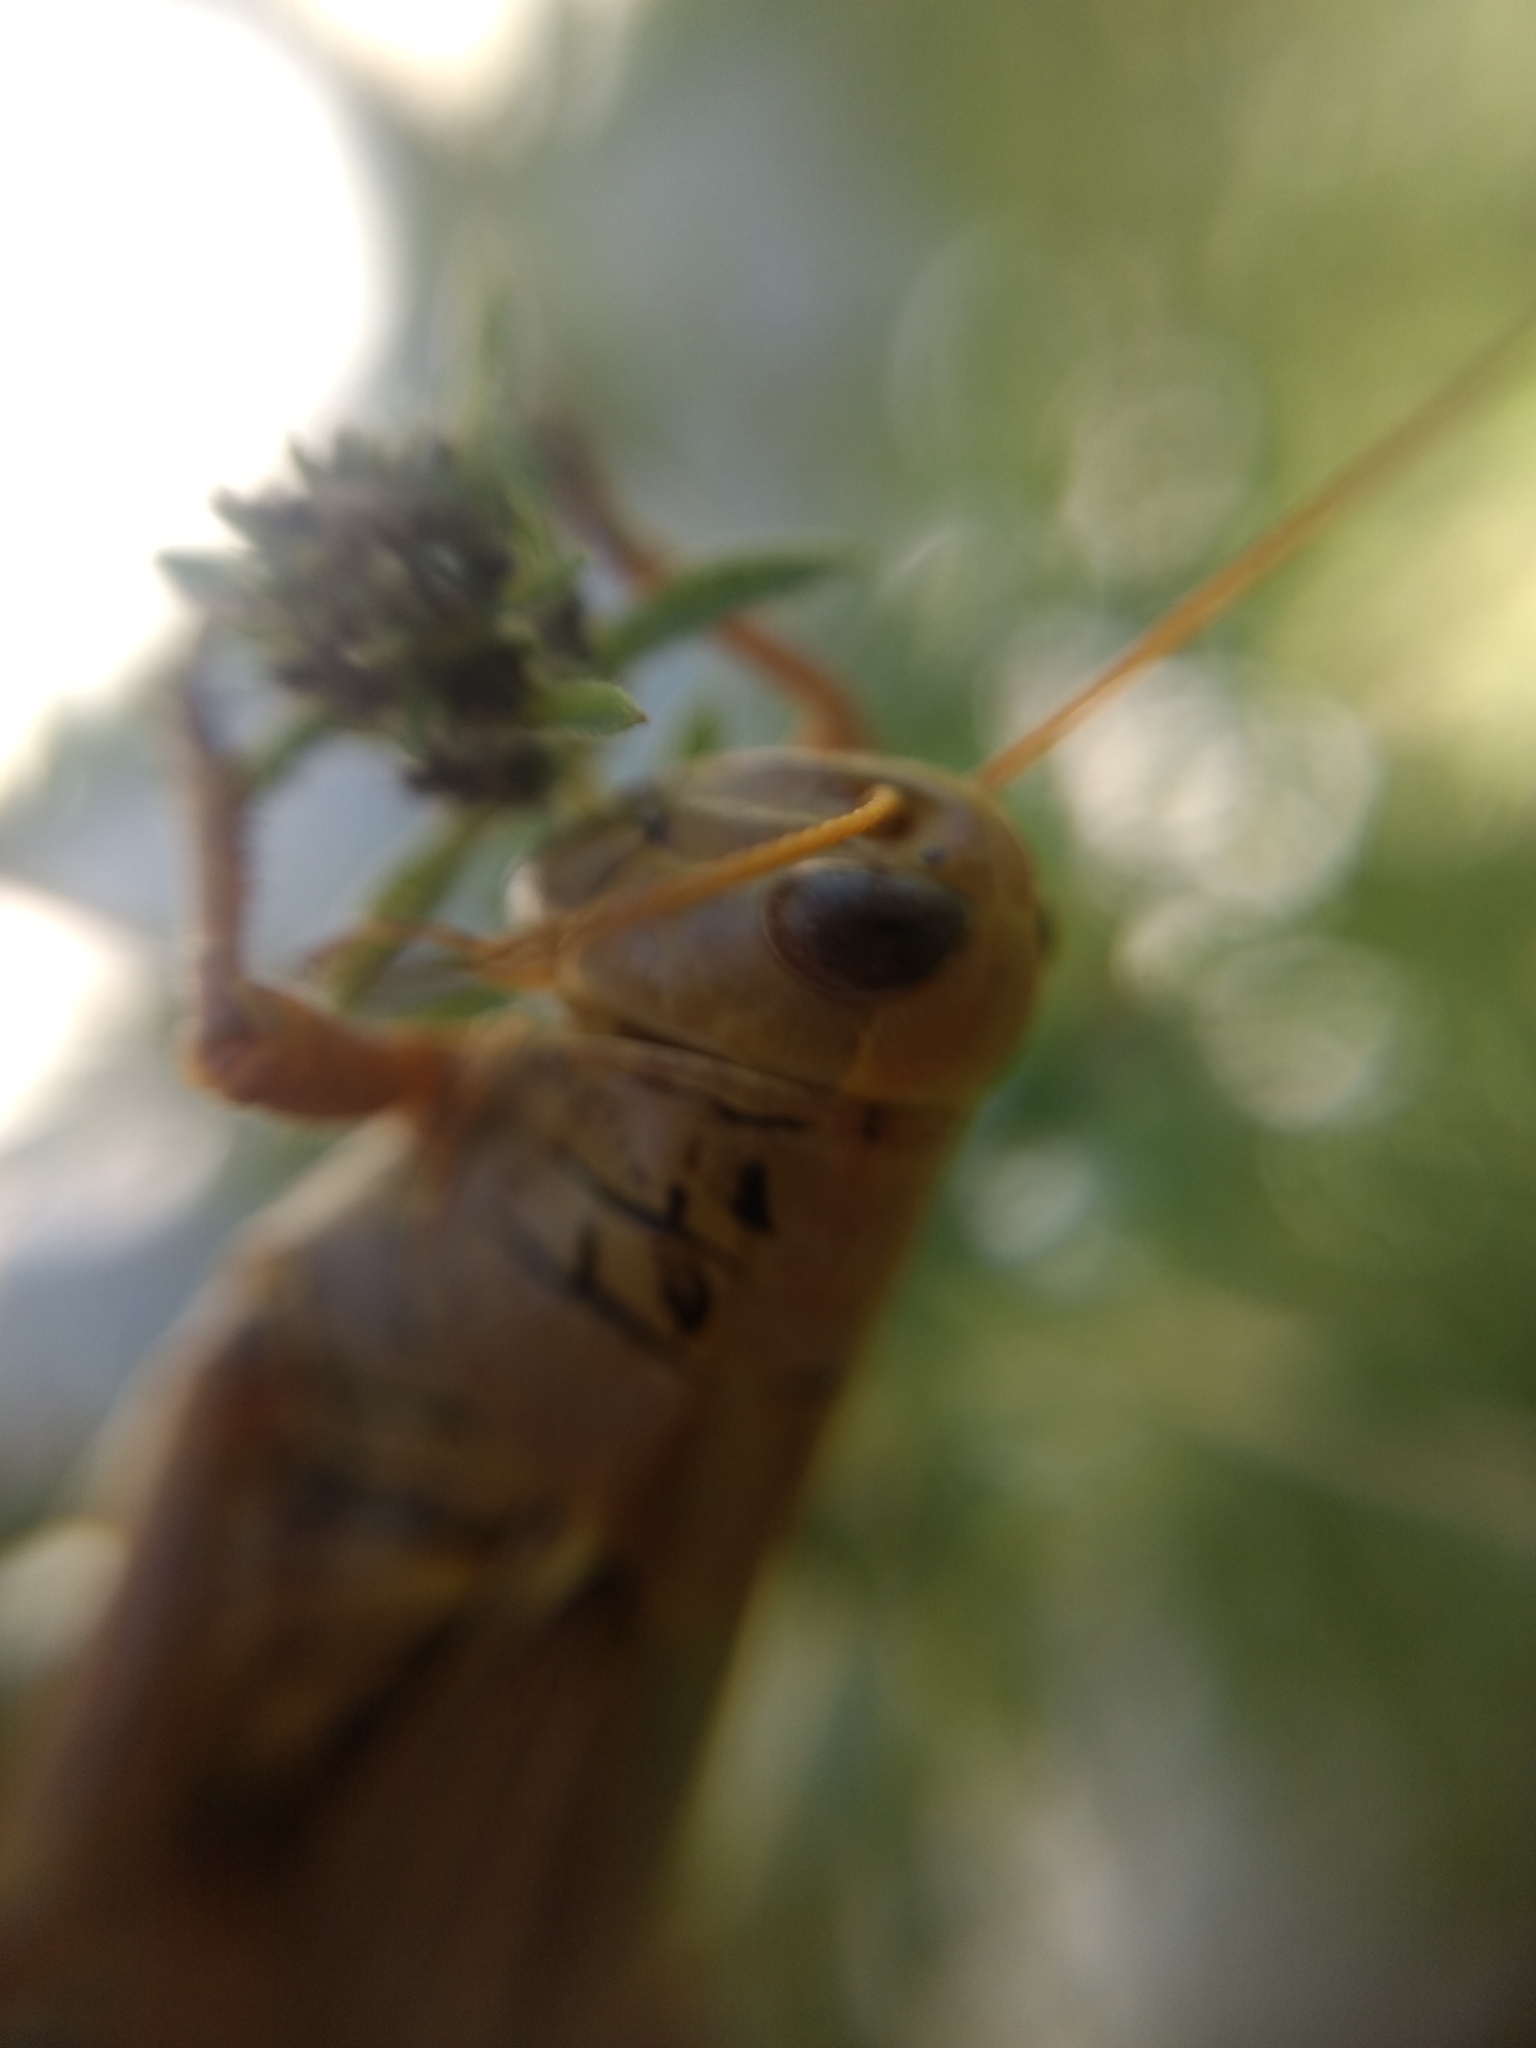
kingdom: Animalia
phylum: Arthropoda
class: Insecta
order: Orthoptera
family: Acrididae
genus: Melanoplus
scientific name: Melanoplus differentialis
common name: Differential grasshopper
